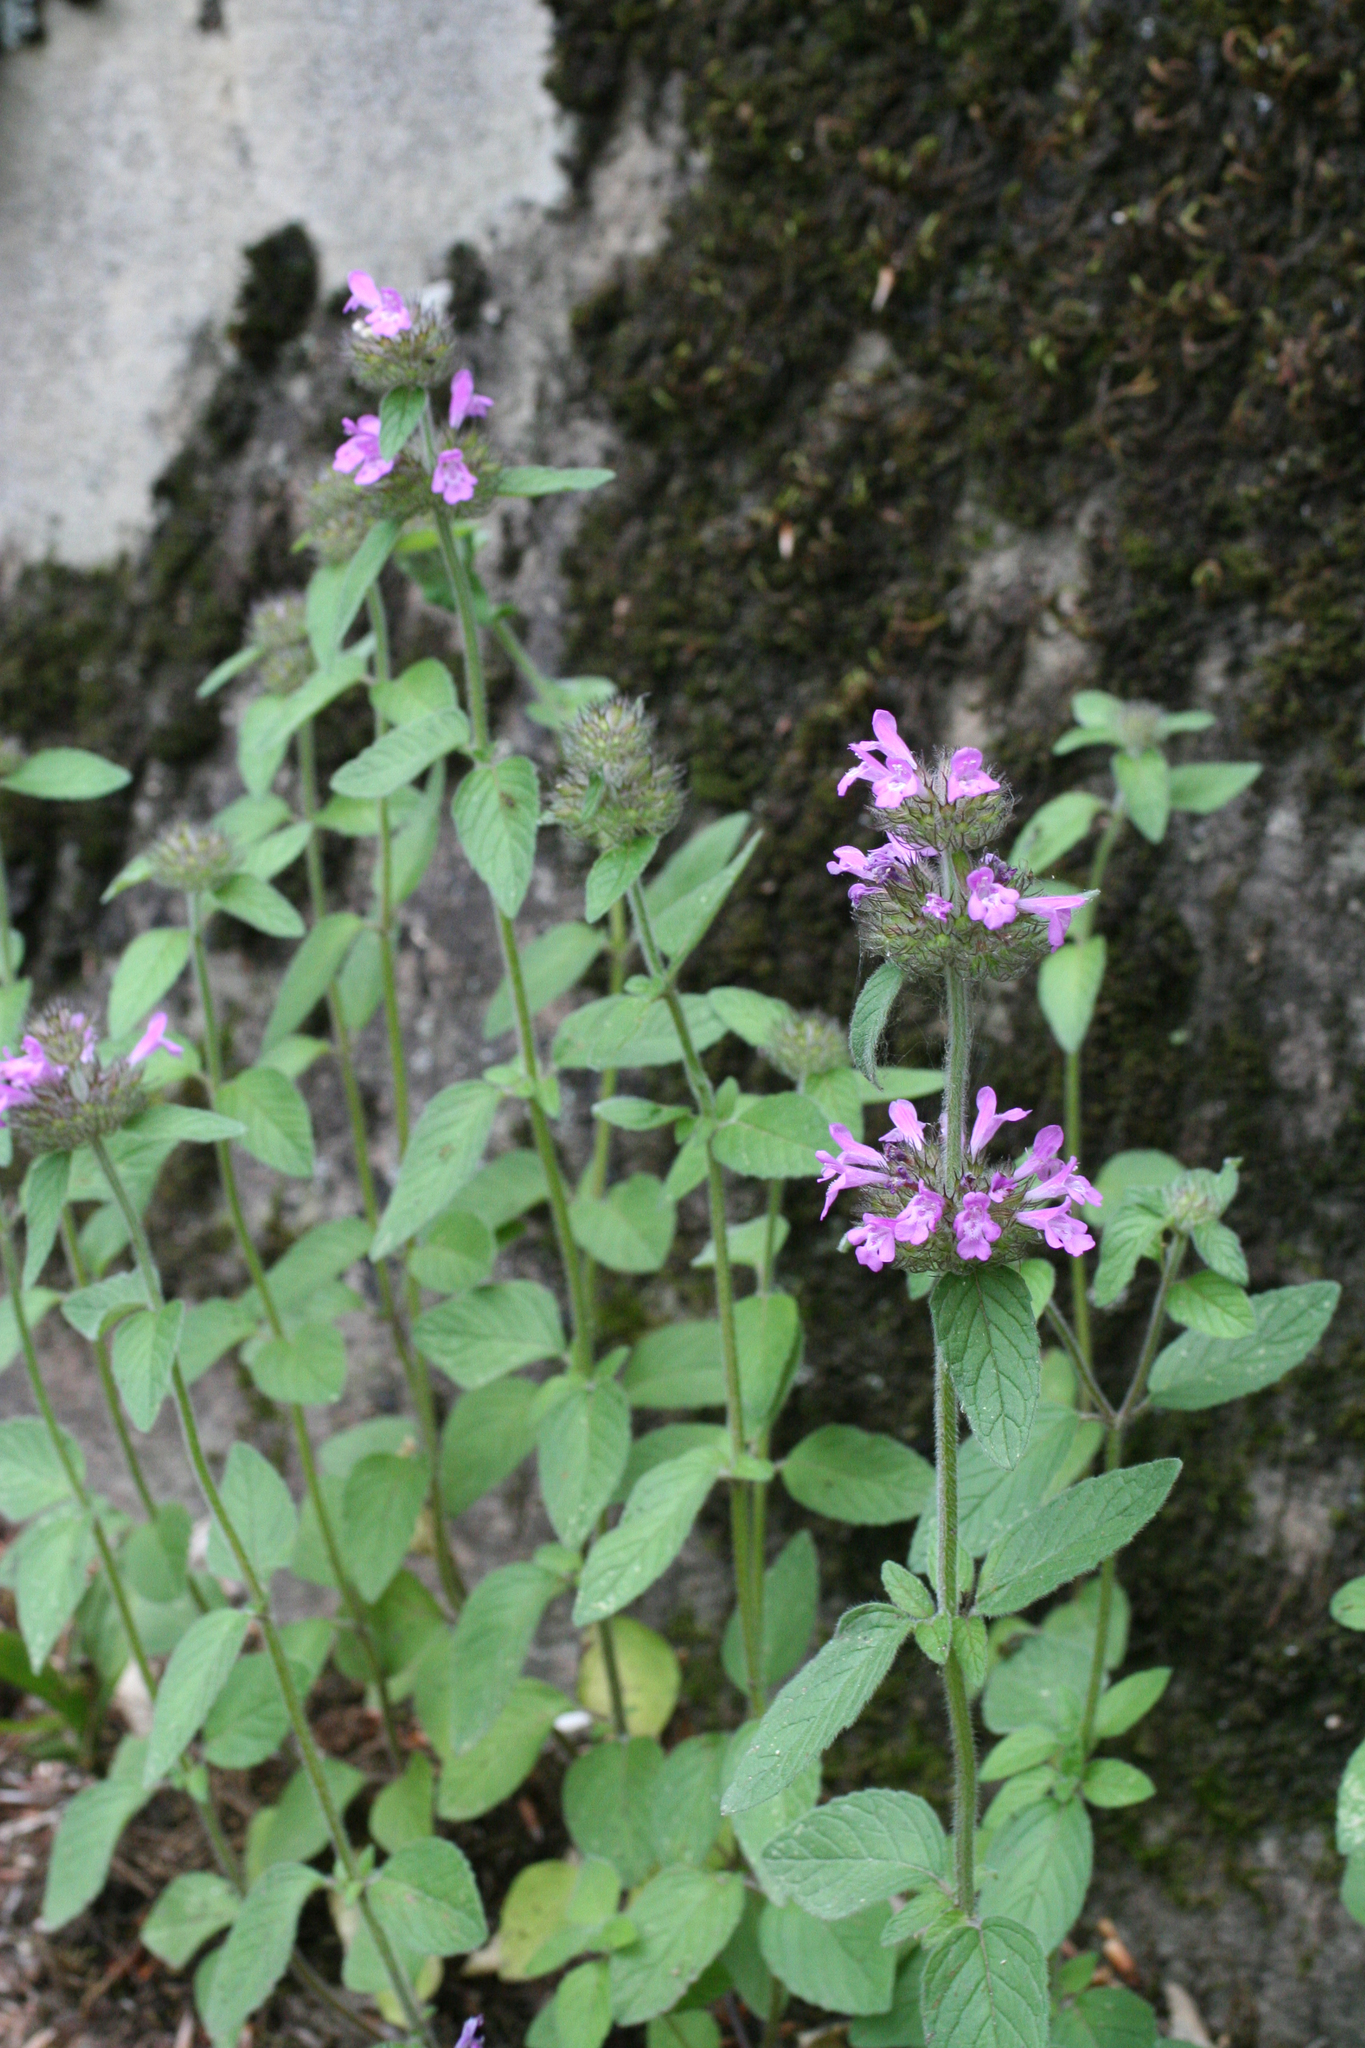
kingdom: Plantae
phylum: Tracheophyta
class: Magnoliopsida
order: Lamiales
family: Lamiaceae
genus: Clinopodium
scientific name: Clinopodium caucasicum
